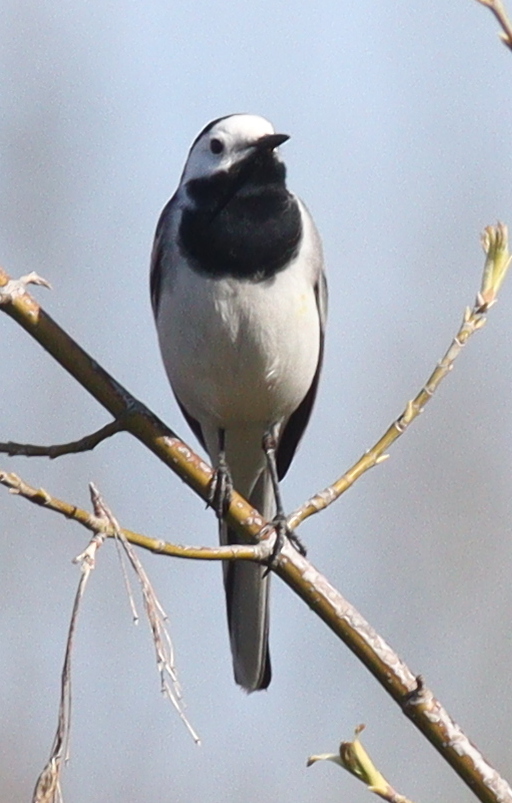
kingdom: Animalia
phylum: Chordata
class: Aves
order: Passeriformes
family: Motacillidae
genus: Motacilla
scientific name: Motacilla alba
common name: White wagtail
